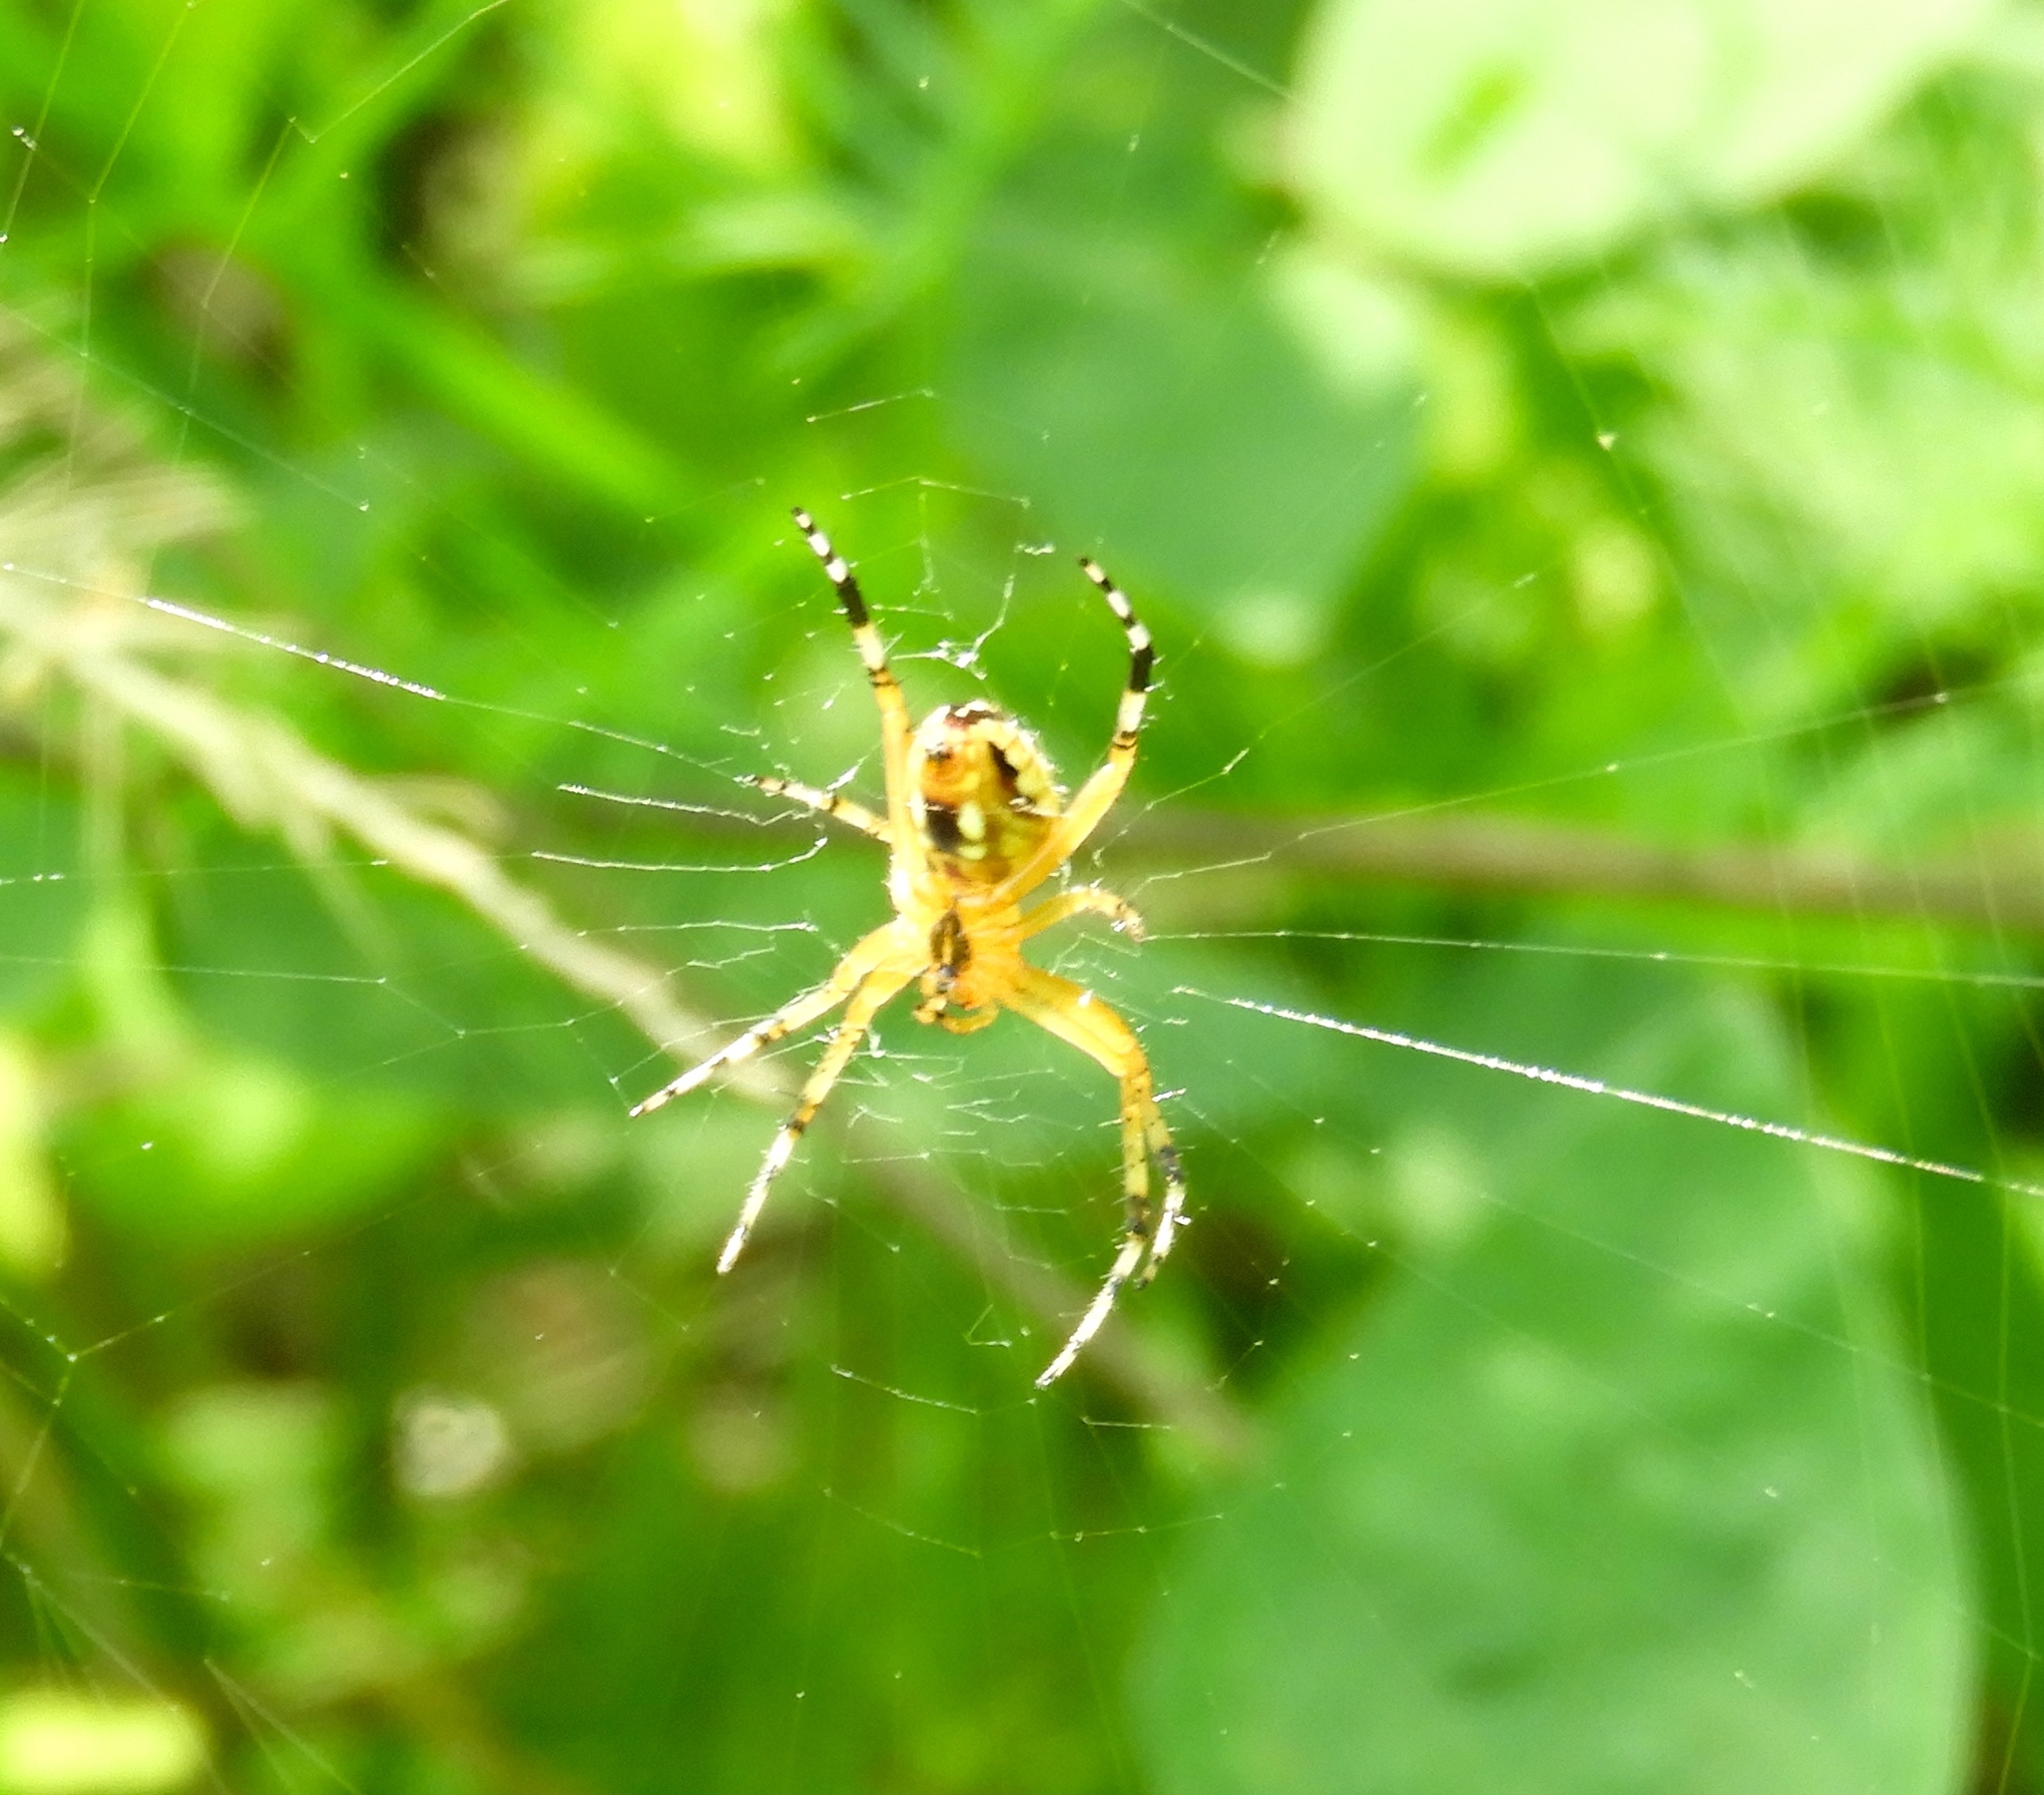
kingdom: Animalia
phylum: Arthropoda
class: Arachnida
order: Araneae
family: Araneidae
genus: Neoscona
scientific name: Neoscona oaxacensis
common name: Orb weavers
